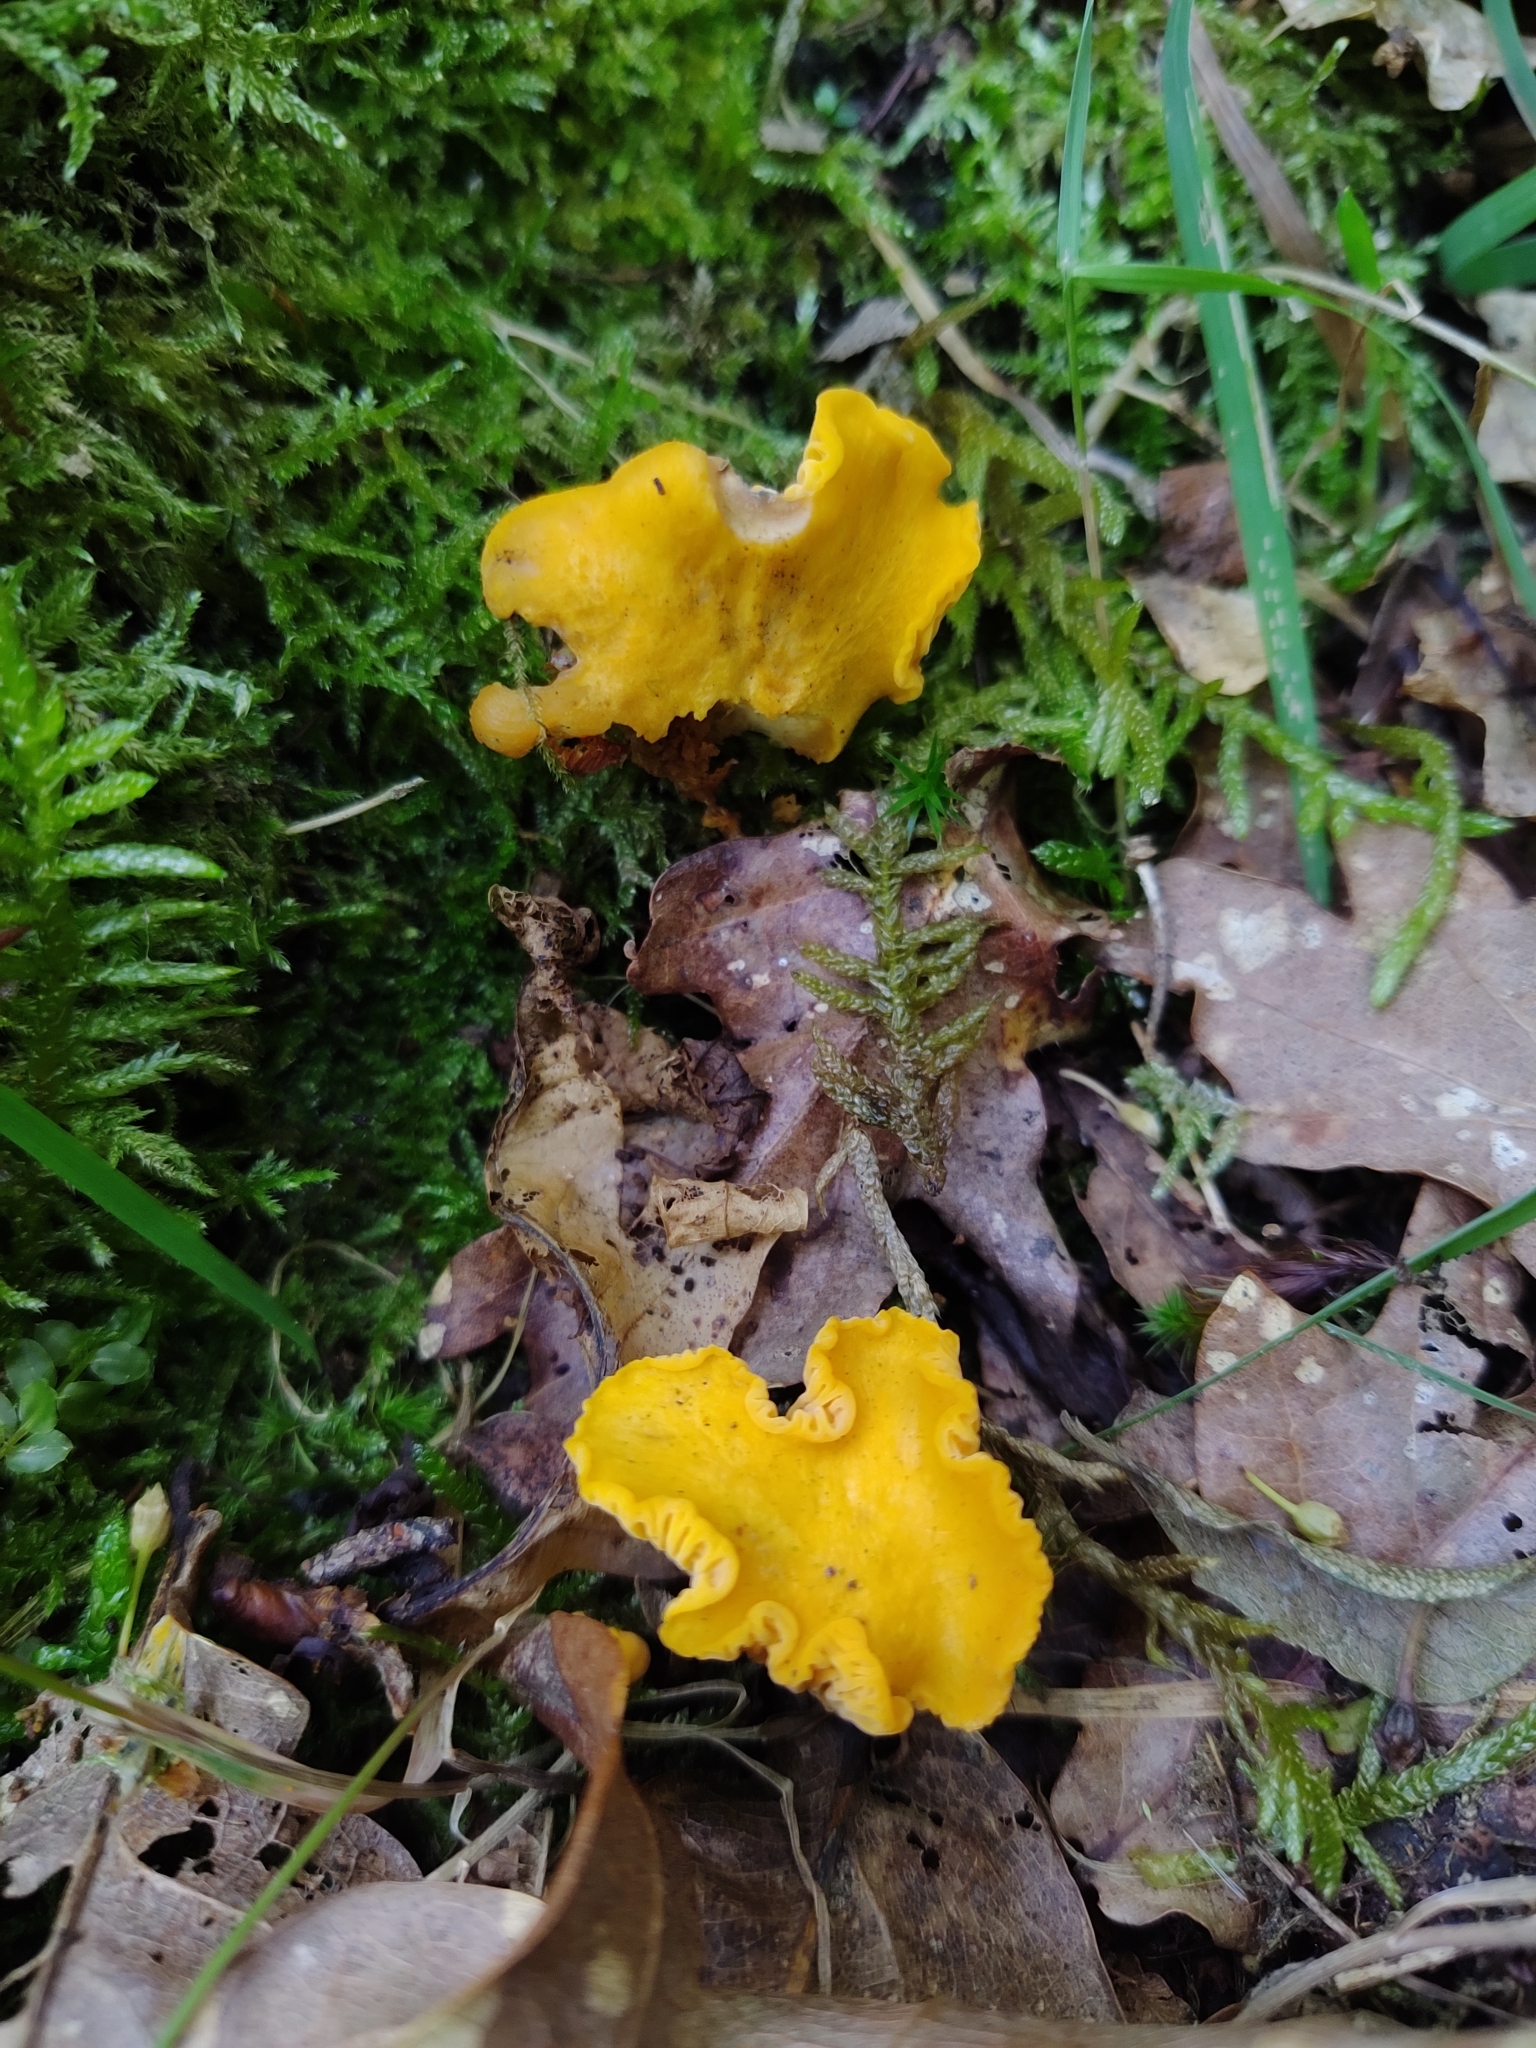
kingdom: Fungi
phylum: Basidiomycota
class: Agaricomycetes
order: Cantharellales
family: Hydnaceae
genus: Cantharellus
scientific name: Cantharellus cibarius
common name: Chanterelle
